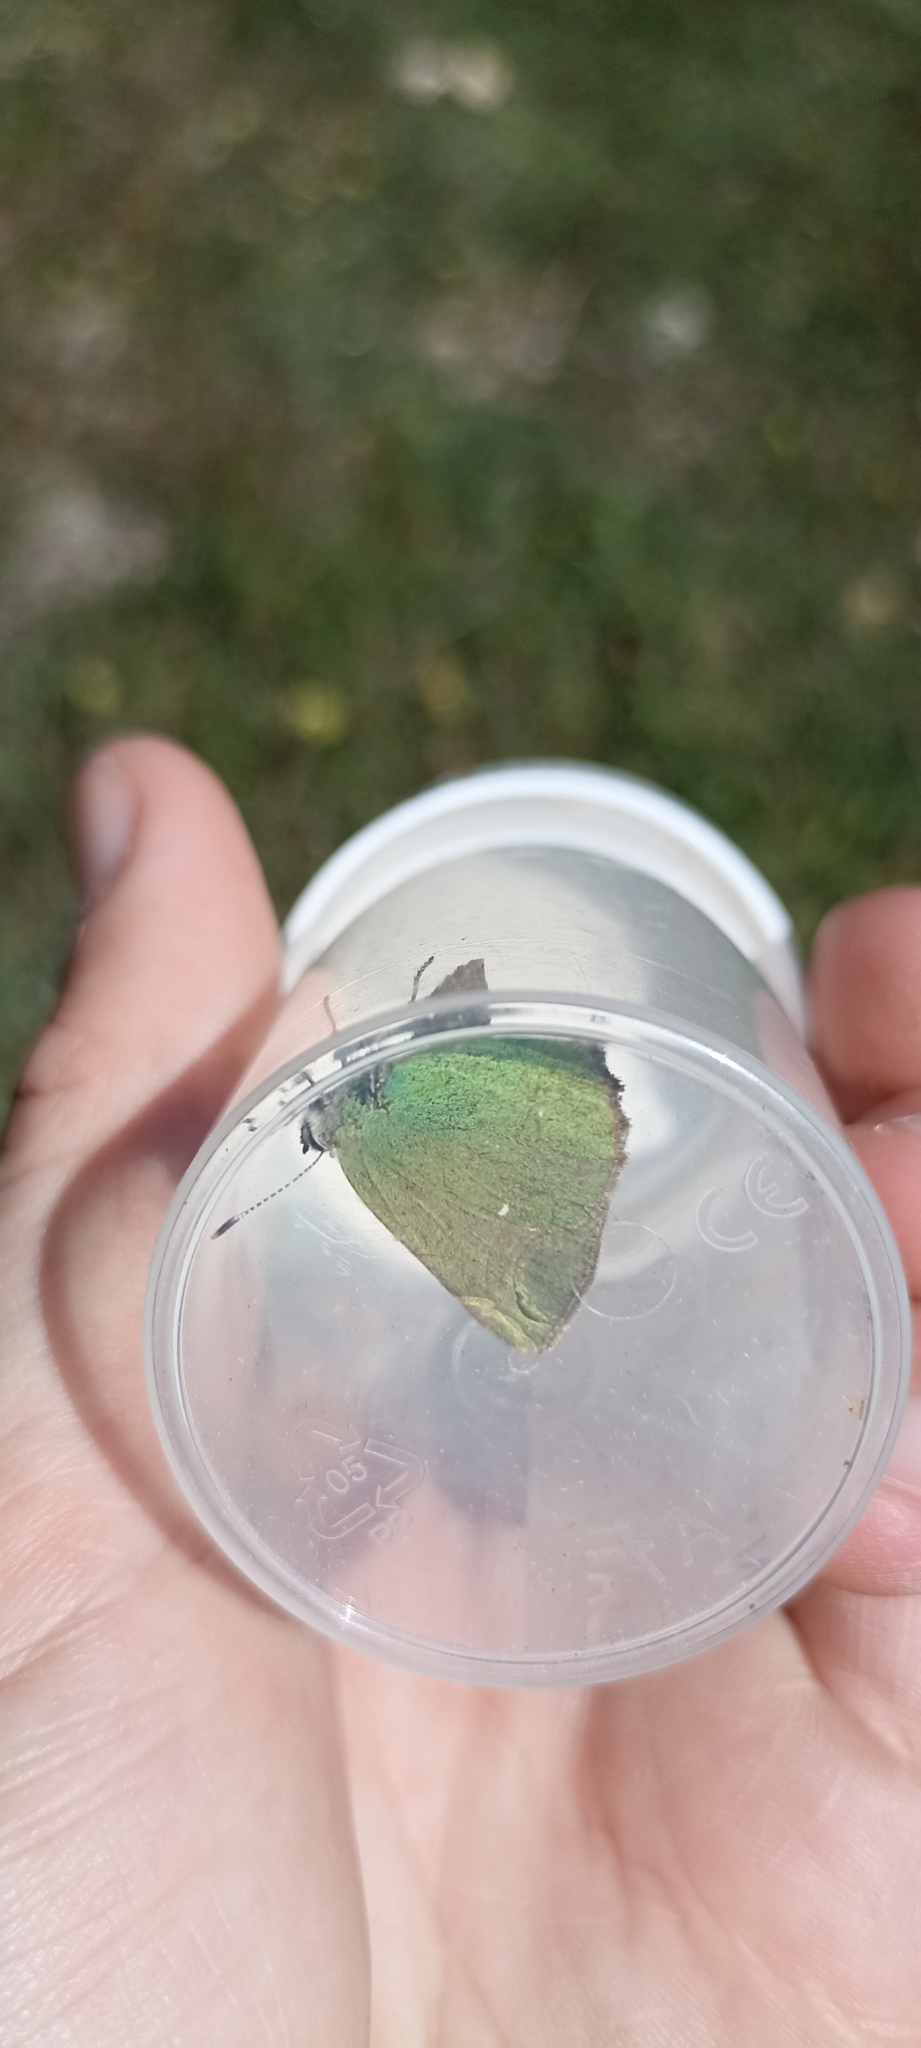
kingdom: Animalia
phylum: Arthropoda
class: Insecta
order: Lepidoptera
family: Lycaenidae
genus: Callophrys
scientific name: Callophrys rubi
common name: Green hairstreak
